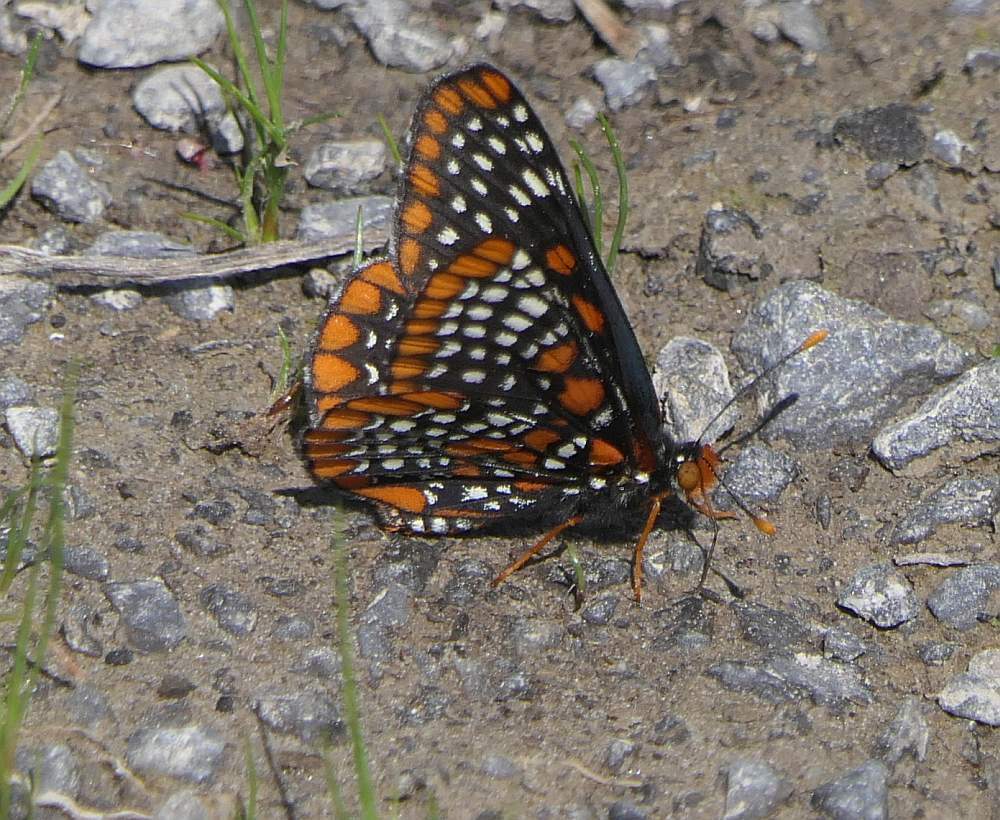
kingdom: Animalia
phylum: Arthropoda
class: Insecta
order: Lepidoptera
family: Nymphalidae
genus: Euphydryas
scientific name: Euphydryas phaeton
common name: Baltimore checkerspot
